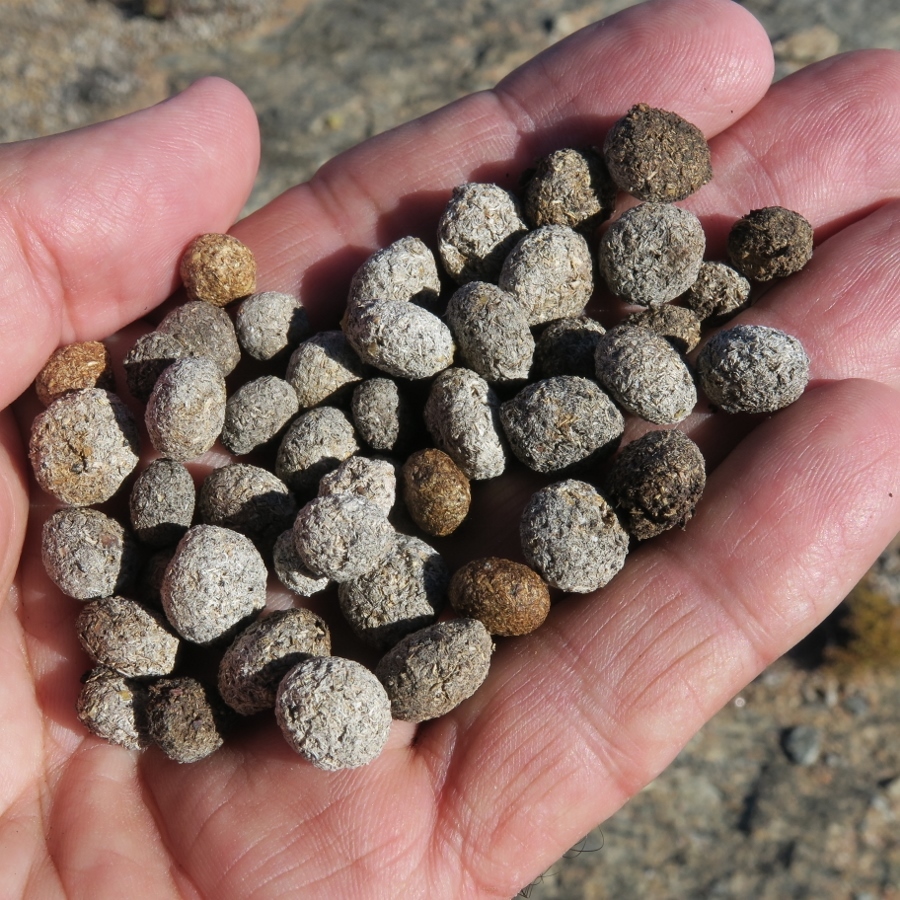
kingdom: Animalia
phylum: Chordata
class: Mammalia
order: Lagomorpha
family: Leporidae
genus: Pronolagus
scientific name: Pronolagus rupestris
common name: Smith's red rock hare
